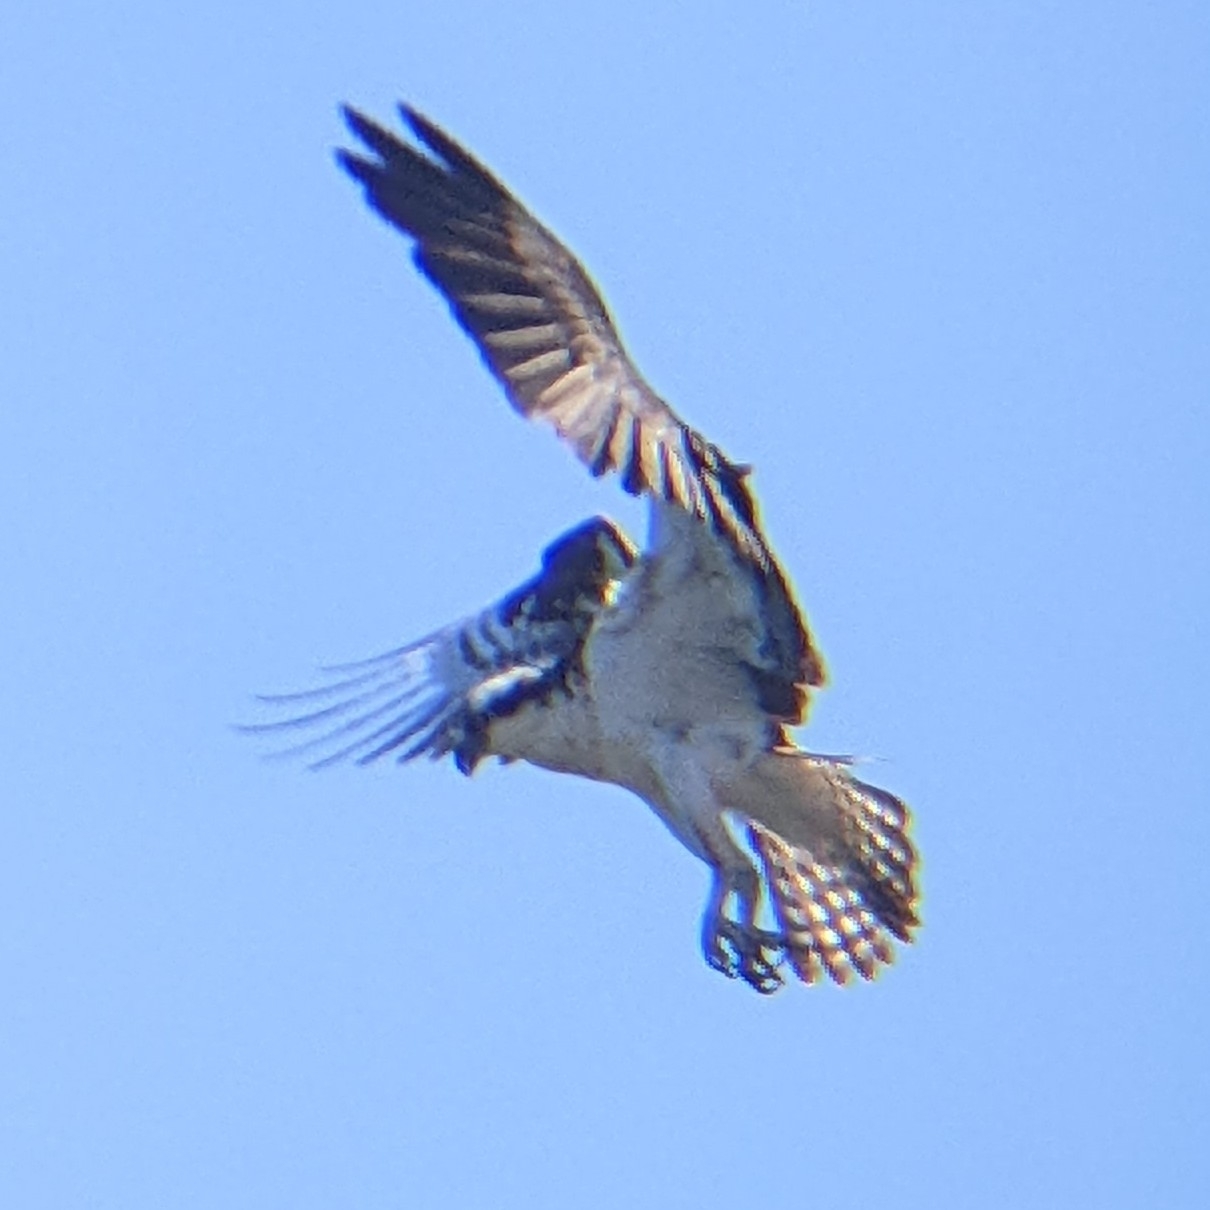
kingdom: Animalia
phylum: Chordata
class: Aves
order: Accipitriformes
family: Pandionidae
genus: Pandion
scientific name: Pandion haliaetus
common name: Osprey
